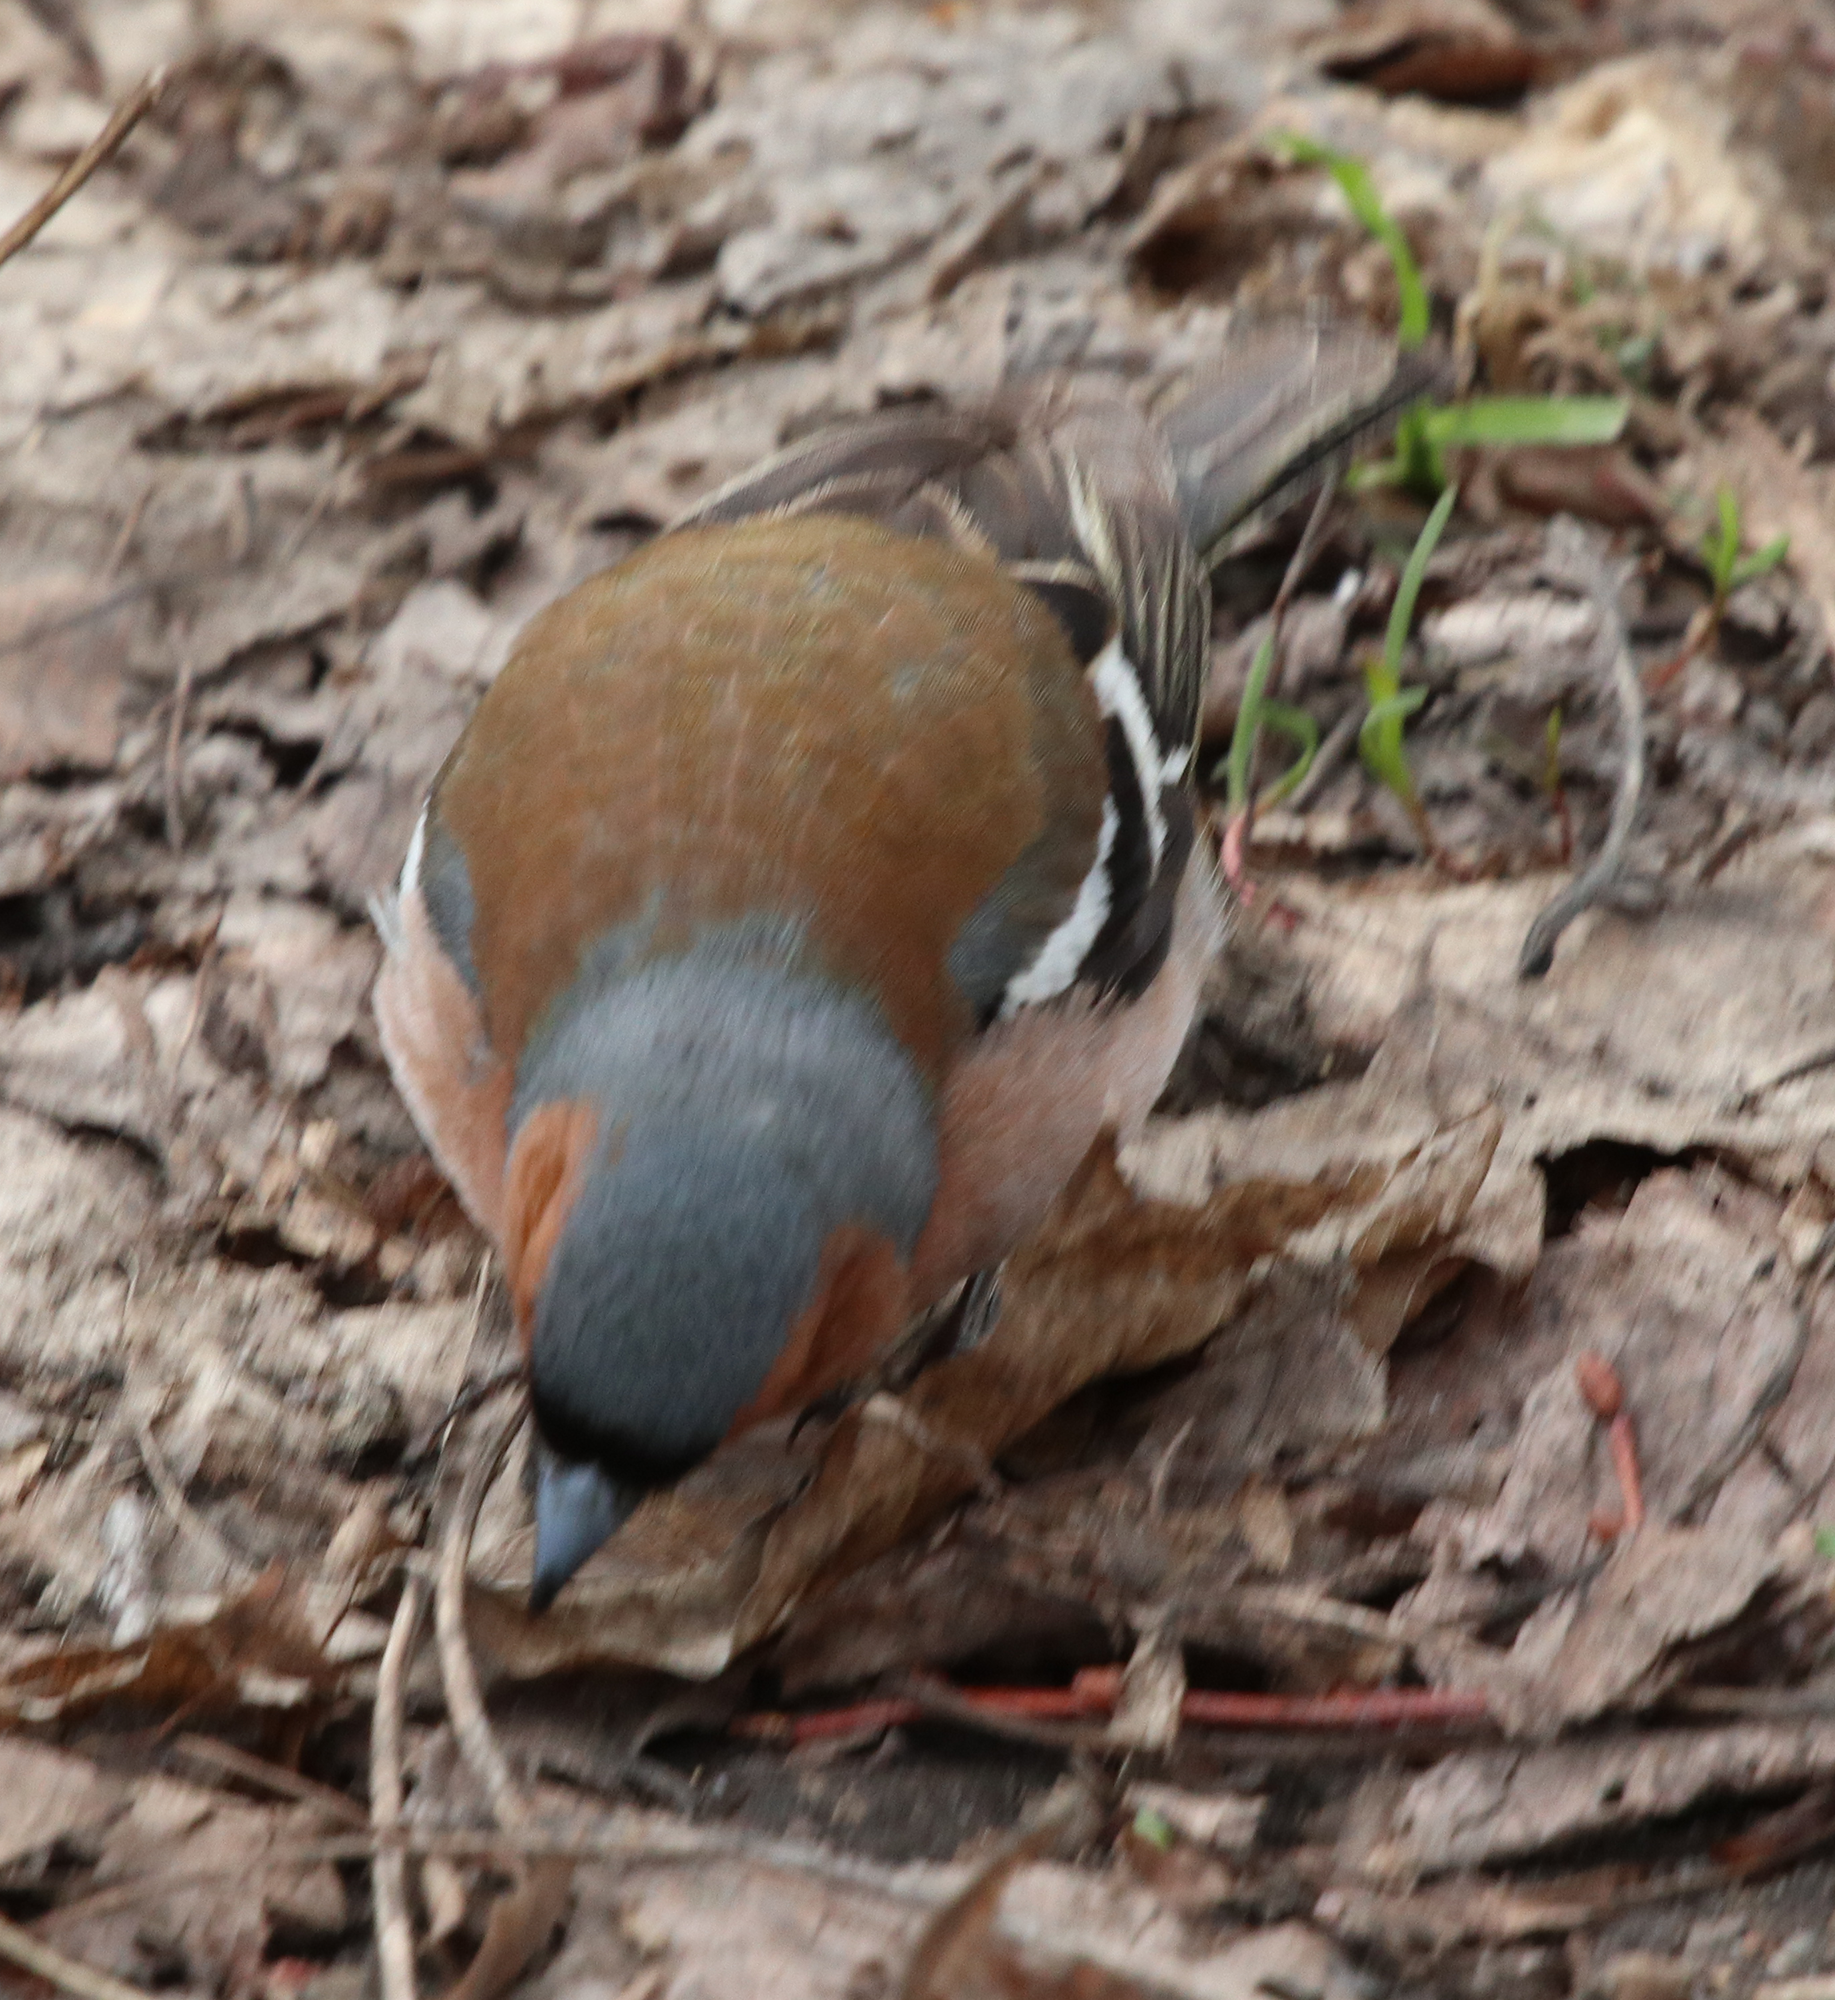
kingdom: Animalia
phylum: Chordata
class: Aves
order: Passeriformes
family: Fringillidae
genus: Fringilla
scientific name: Fringilla coelebs
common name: Common chaffinch
